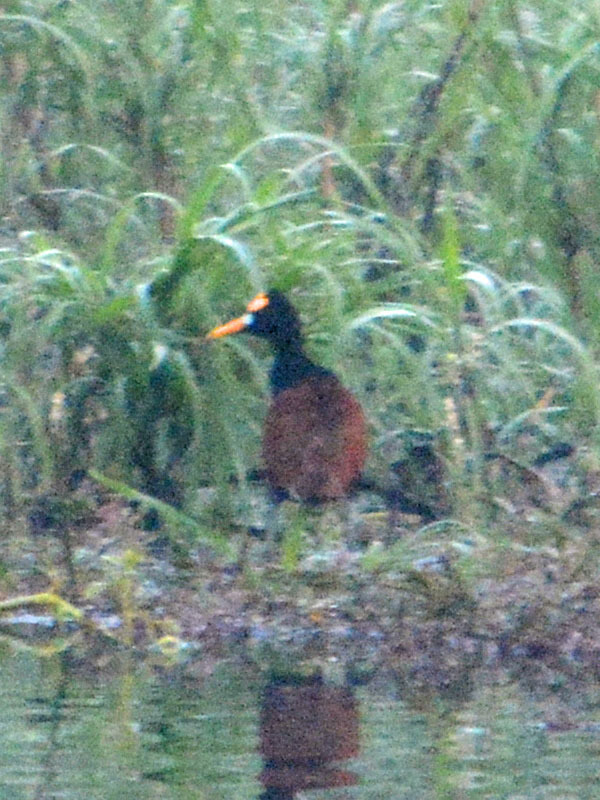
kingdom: Animalia
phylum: Chordata
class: Aves
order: Charadriiformes
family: Jacanidae
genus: Jacana
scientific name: Jacana spinosa
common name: Northern jacana
